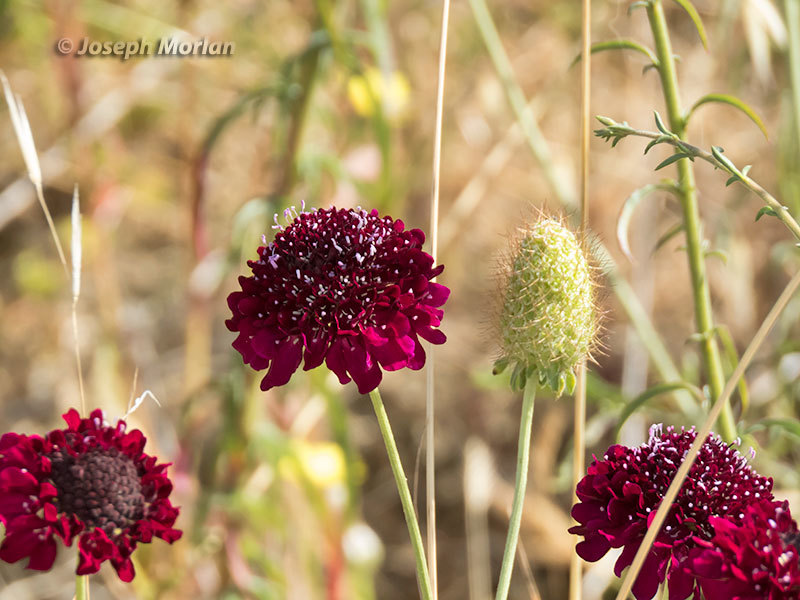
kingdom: Plantae
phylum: Tracheophyta
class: Magnoliopsida
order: Dipsacales
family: Caprifoliaceae
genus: Sixalix
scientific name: Sixalix atropurpurea
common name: Sweet scabious
